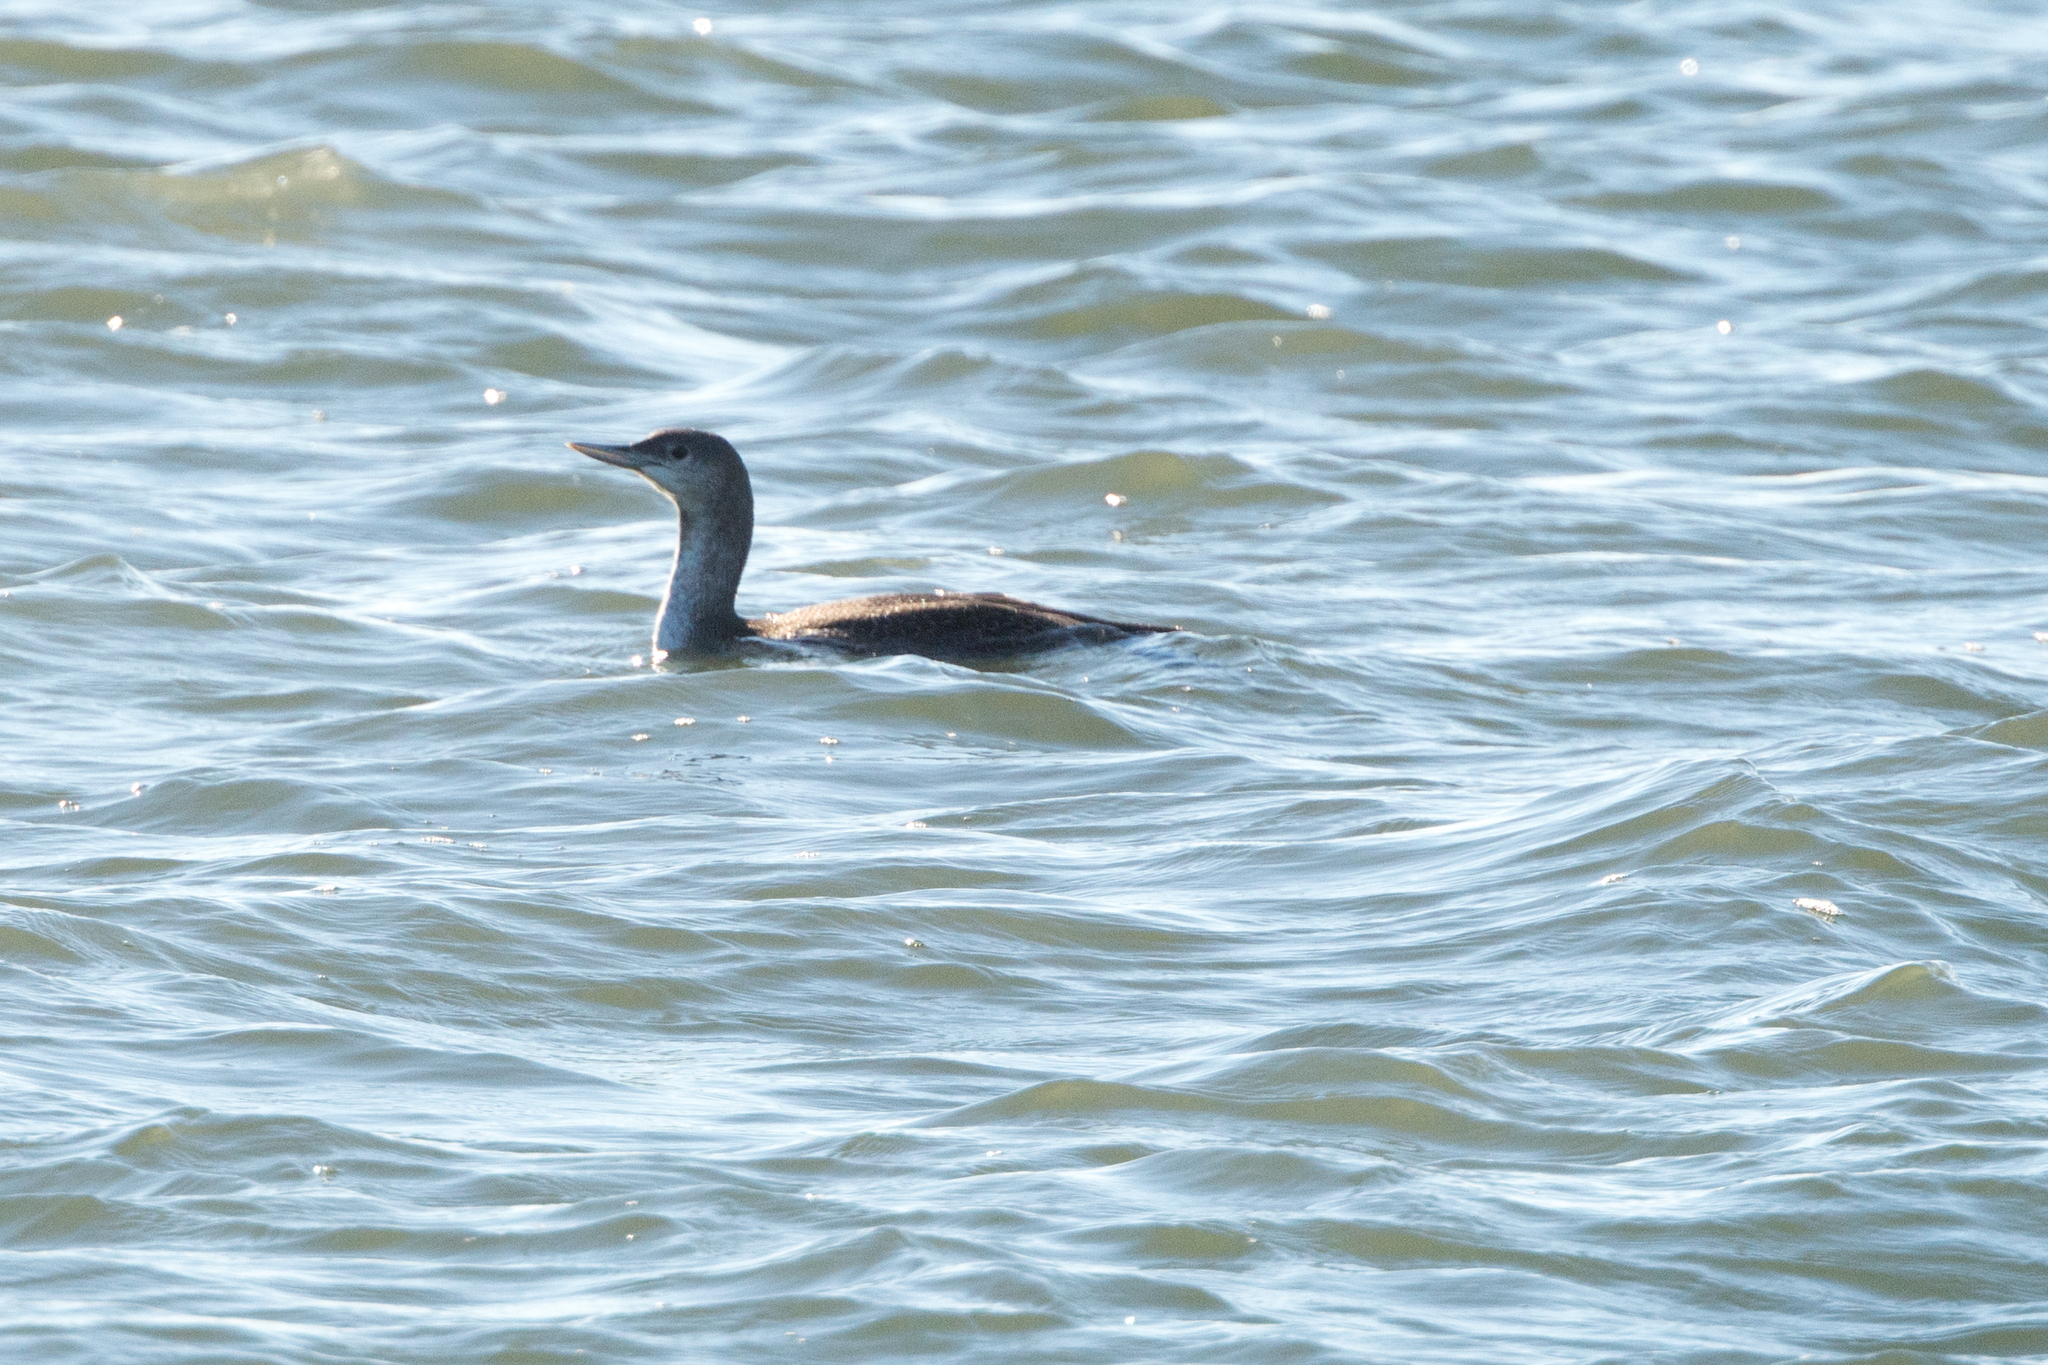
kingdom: Animalia
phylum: Chordata
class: Aves
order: Gaviiformes
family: Gaviidae
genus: Gavia
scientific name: Gavia stellata
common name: Red-throated loon
